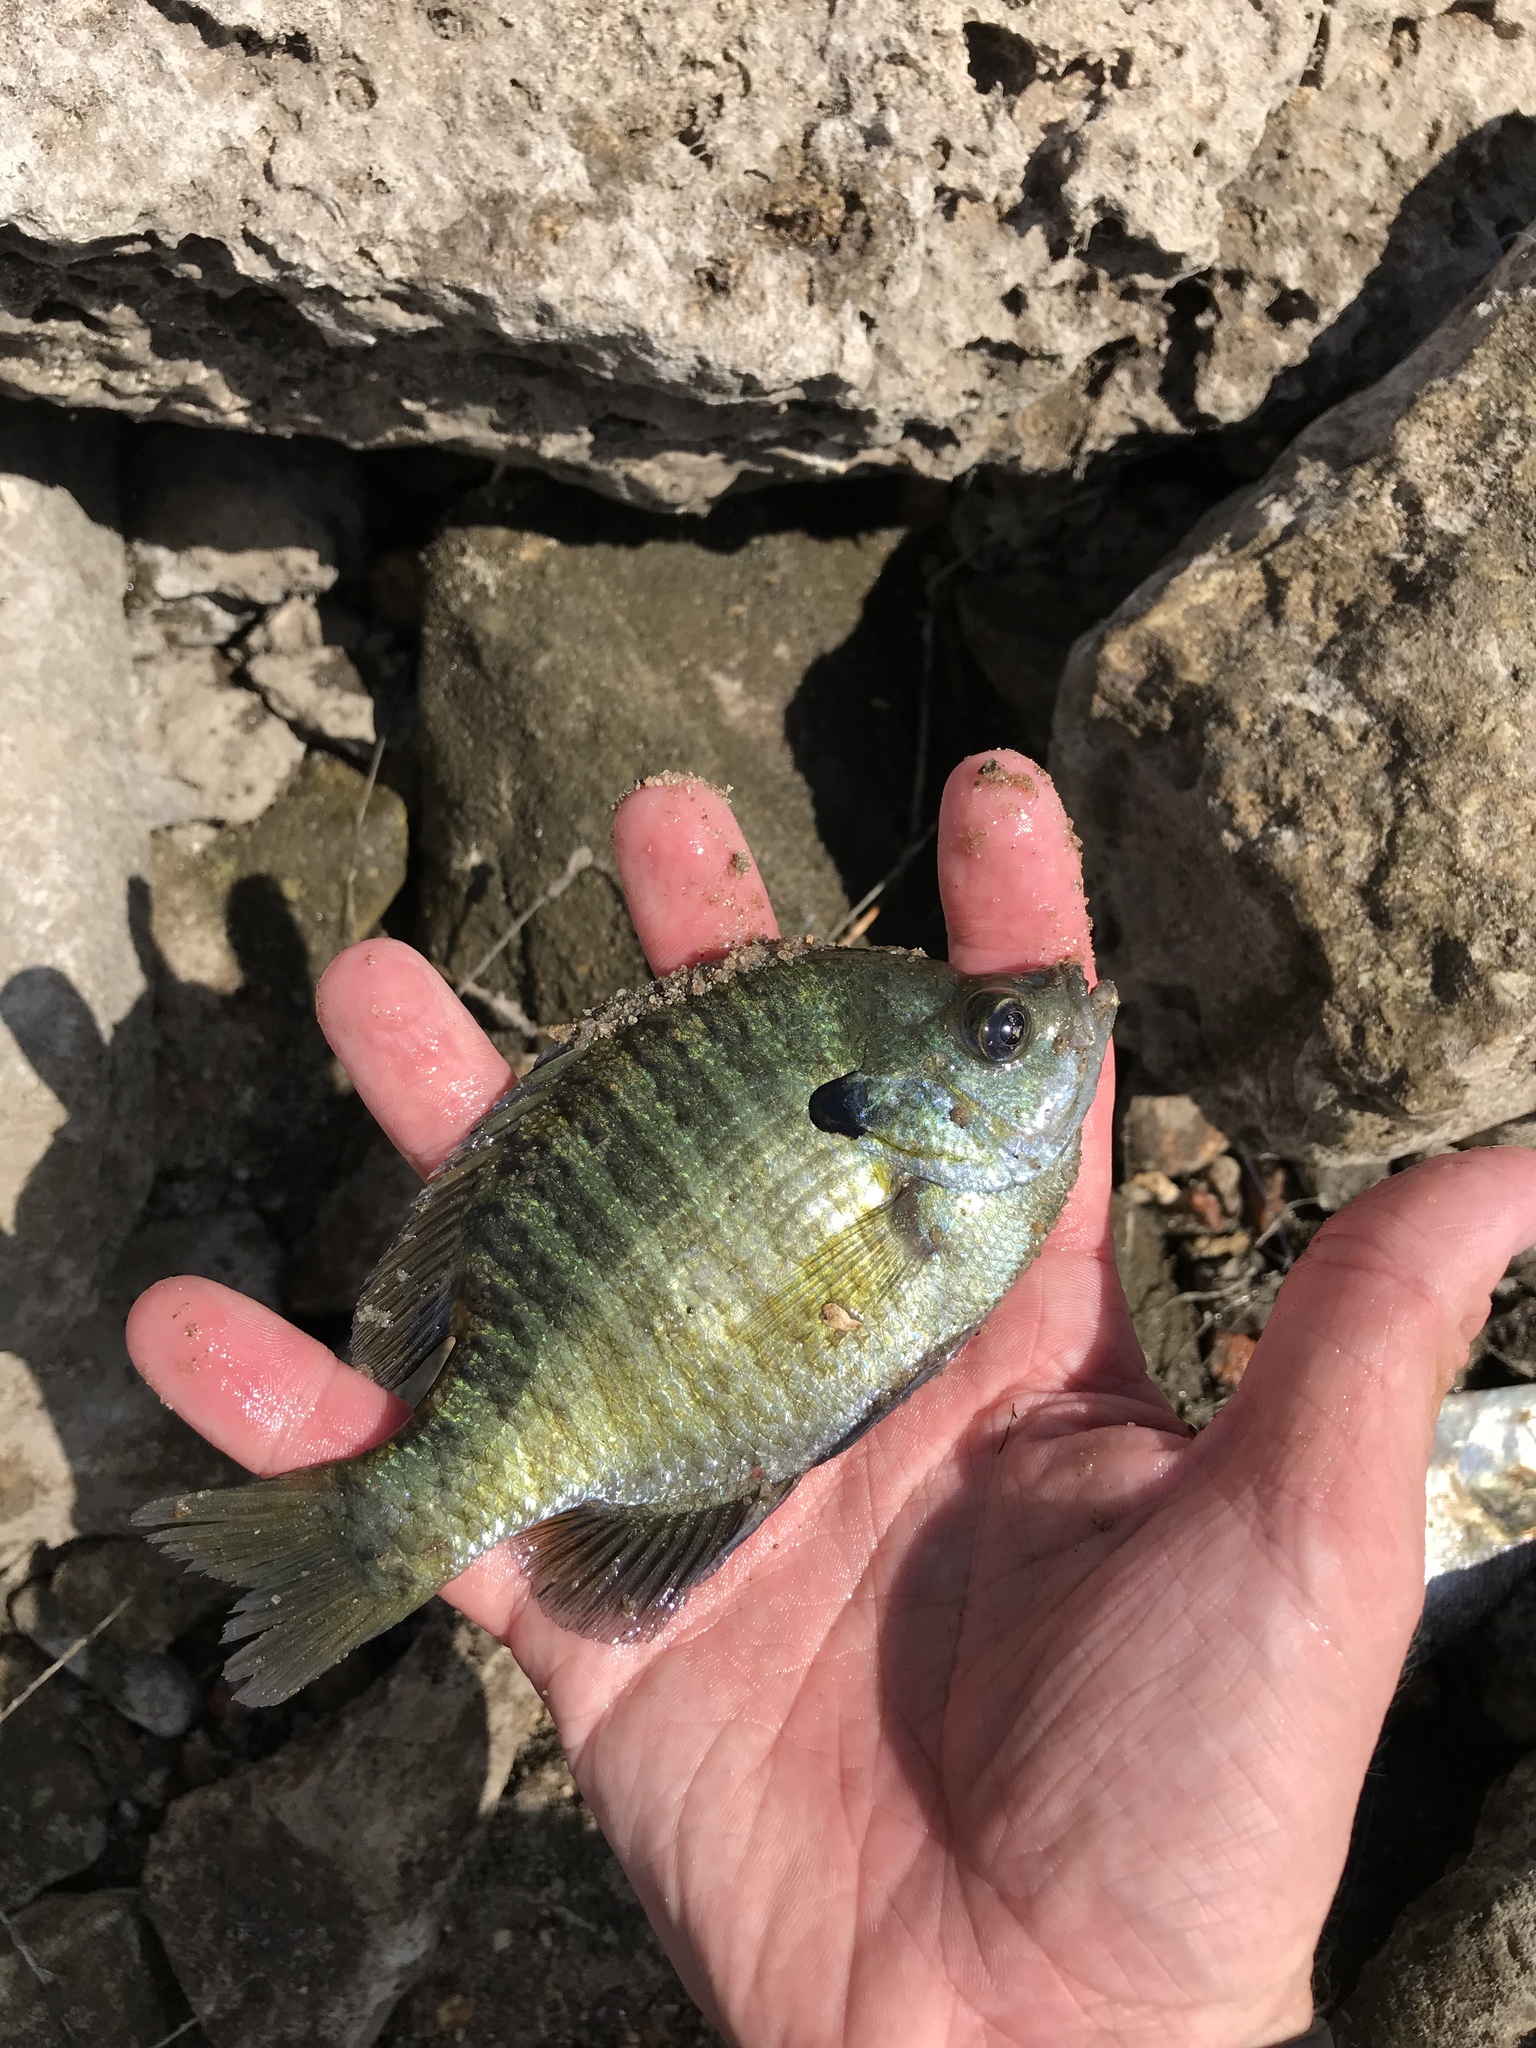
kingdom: Animalia
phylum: Chordata
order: Perciformes
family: Centrarchidae
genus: Lepomis
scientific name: Lepomis macrochirus
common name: Bluegill
